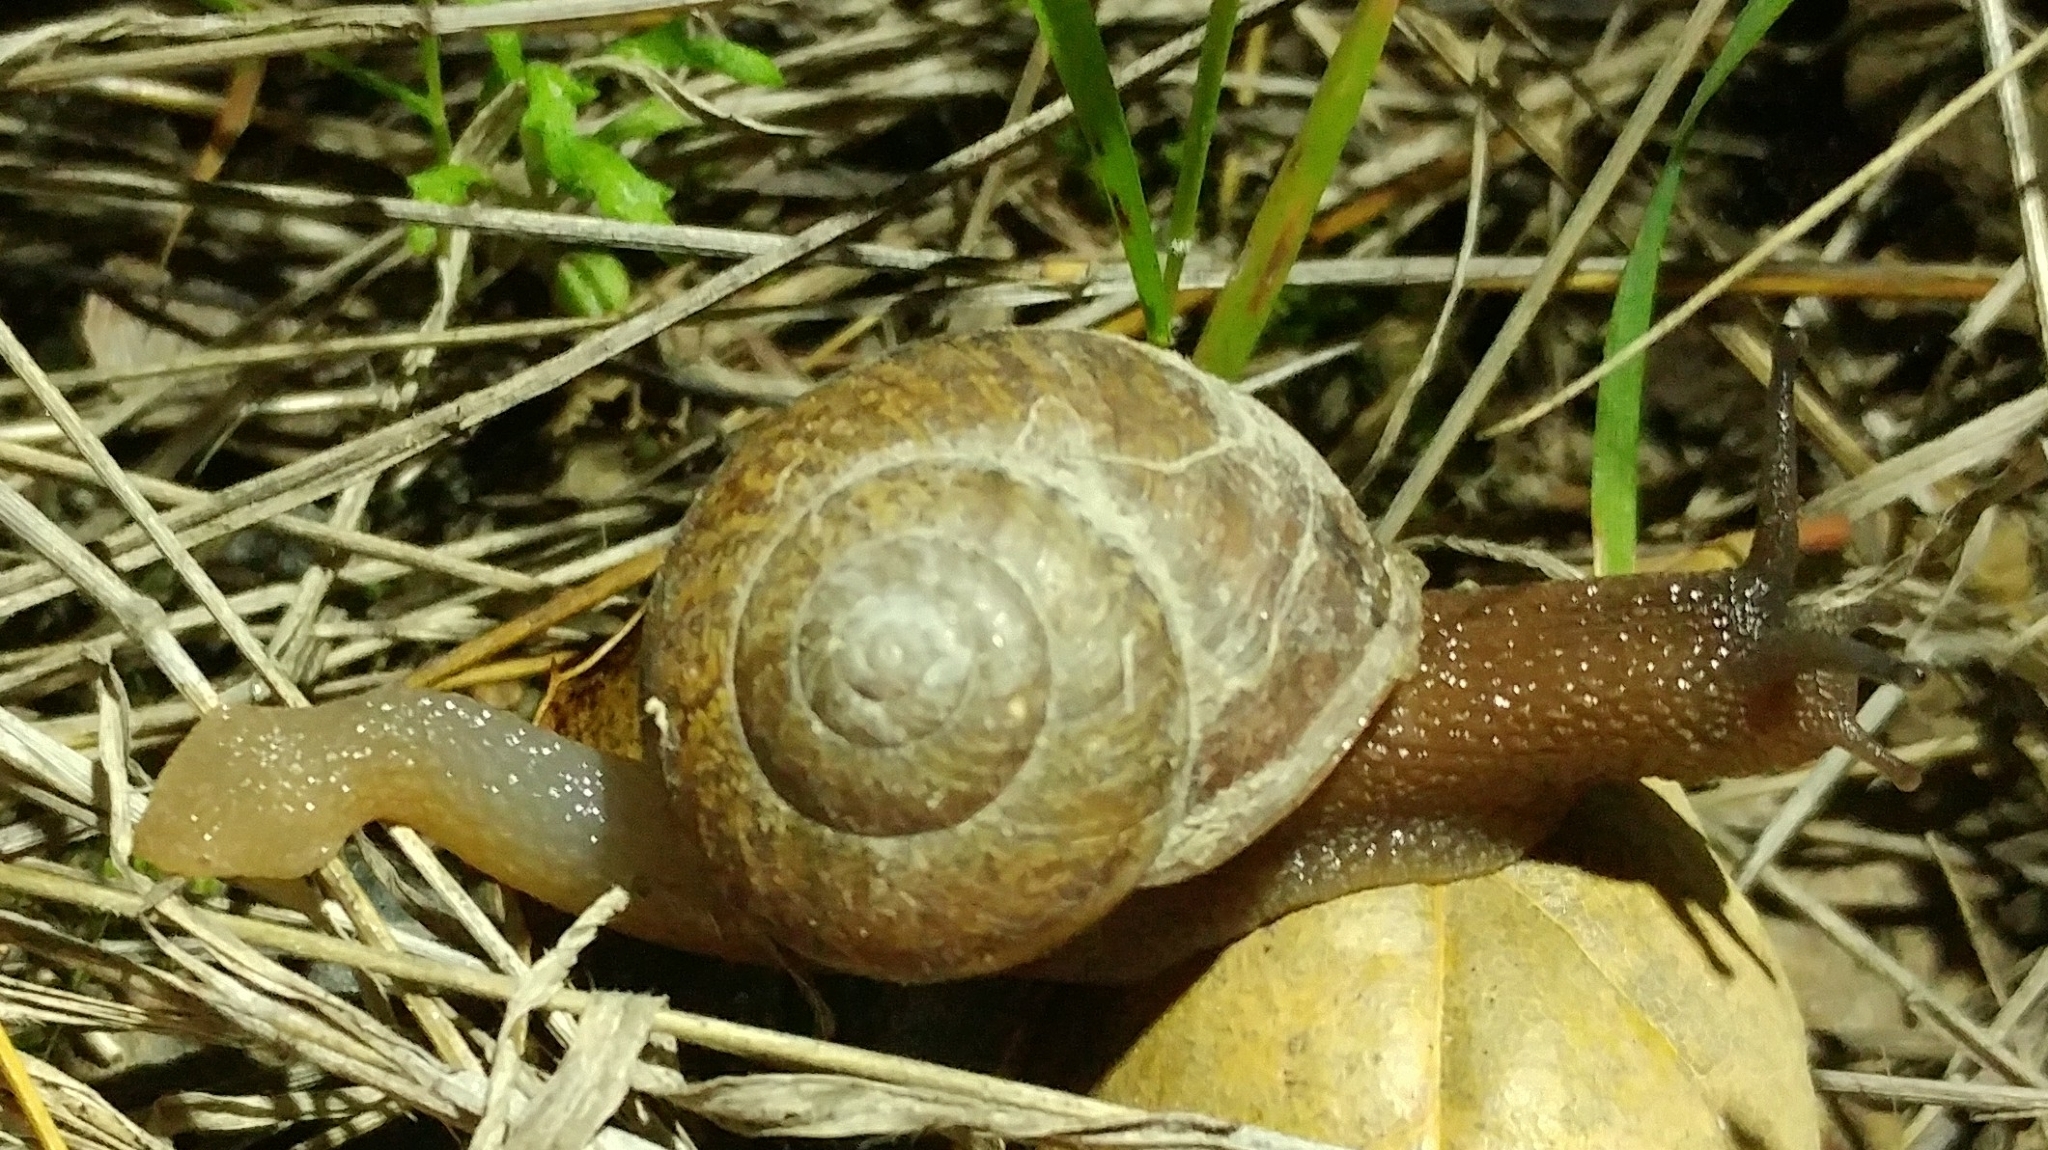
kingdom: Animalia
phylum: Mollusca
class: Gastropoda
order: Stylommatophora
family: Xanthonychidae
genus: Xerarionta
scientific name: Xerarionta stearnsiana
